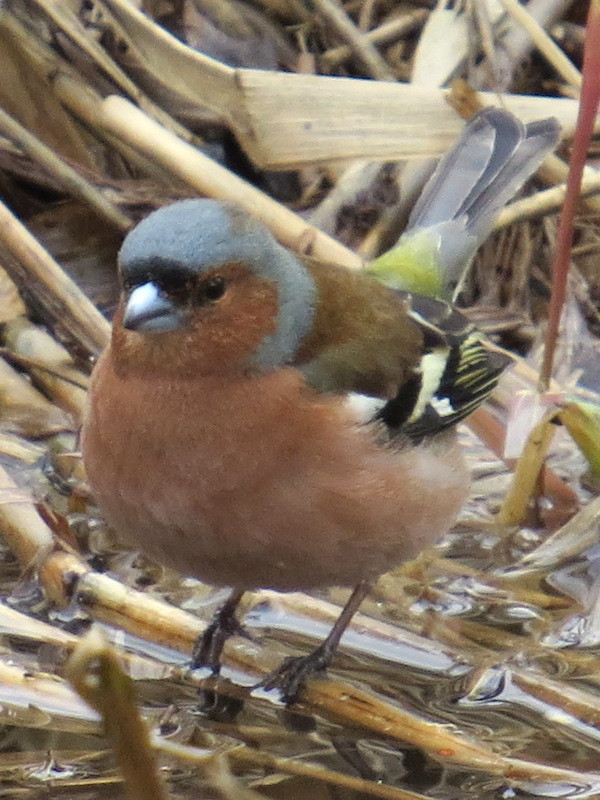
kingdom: Animalia
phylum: Chordata
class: Aves
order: Passeriformes
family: Fringillidae
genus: Fringilla
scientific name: Fringilla coelebs
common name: Common chaffinch
